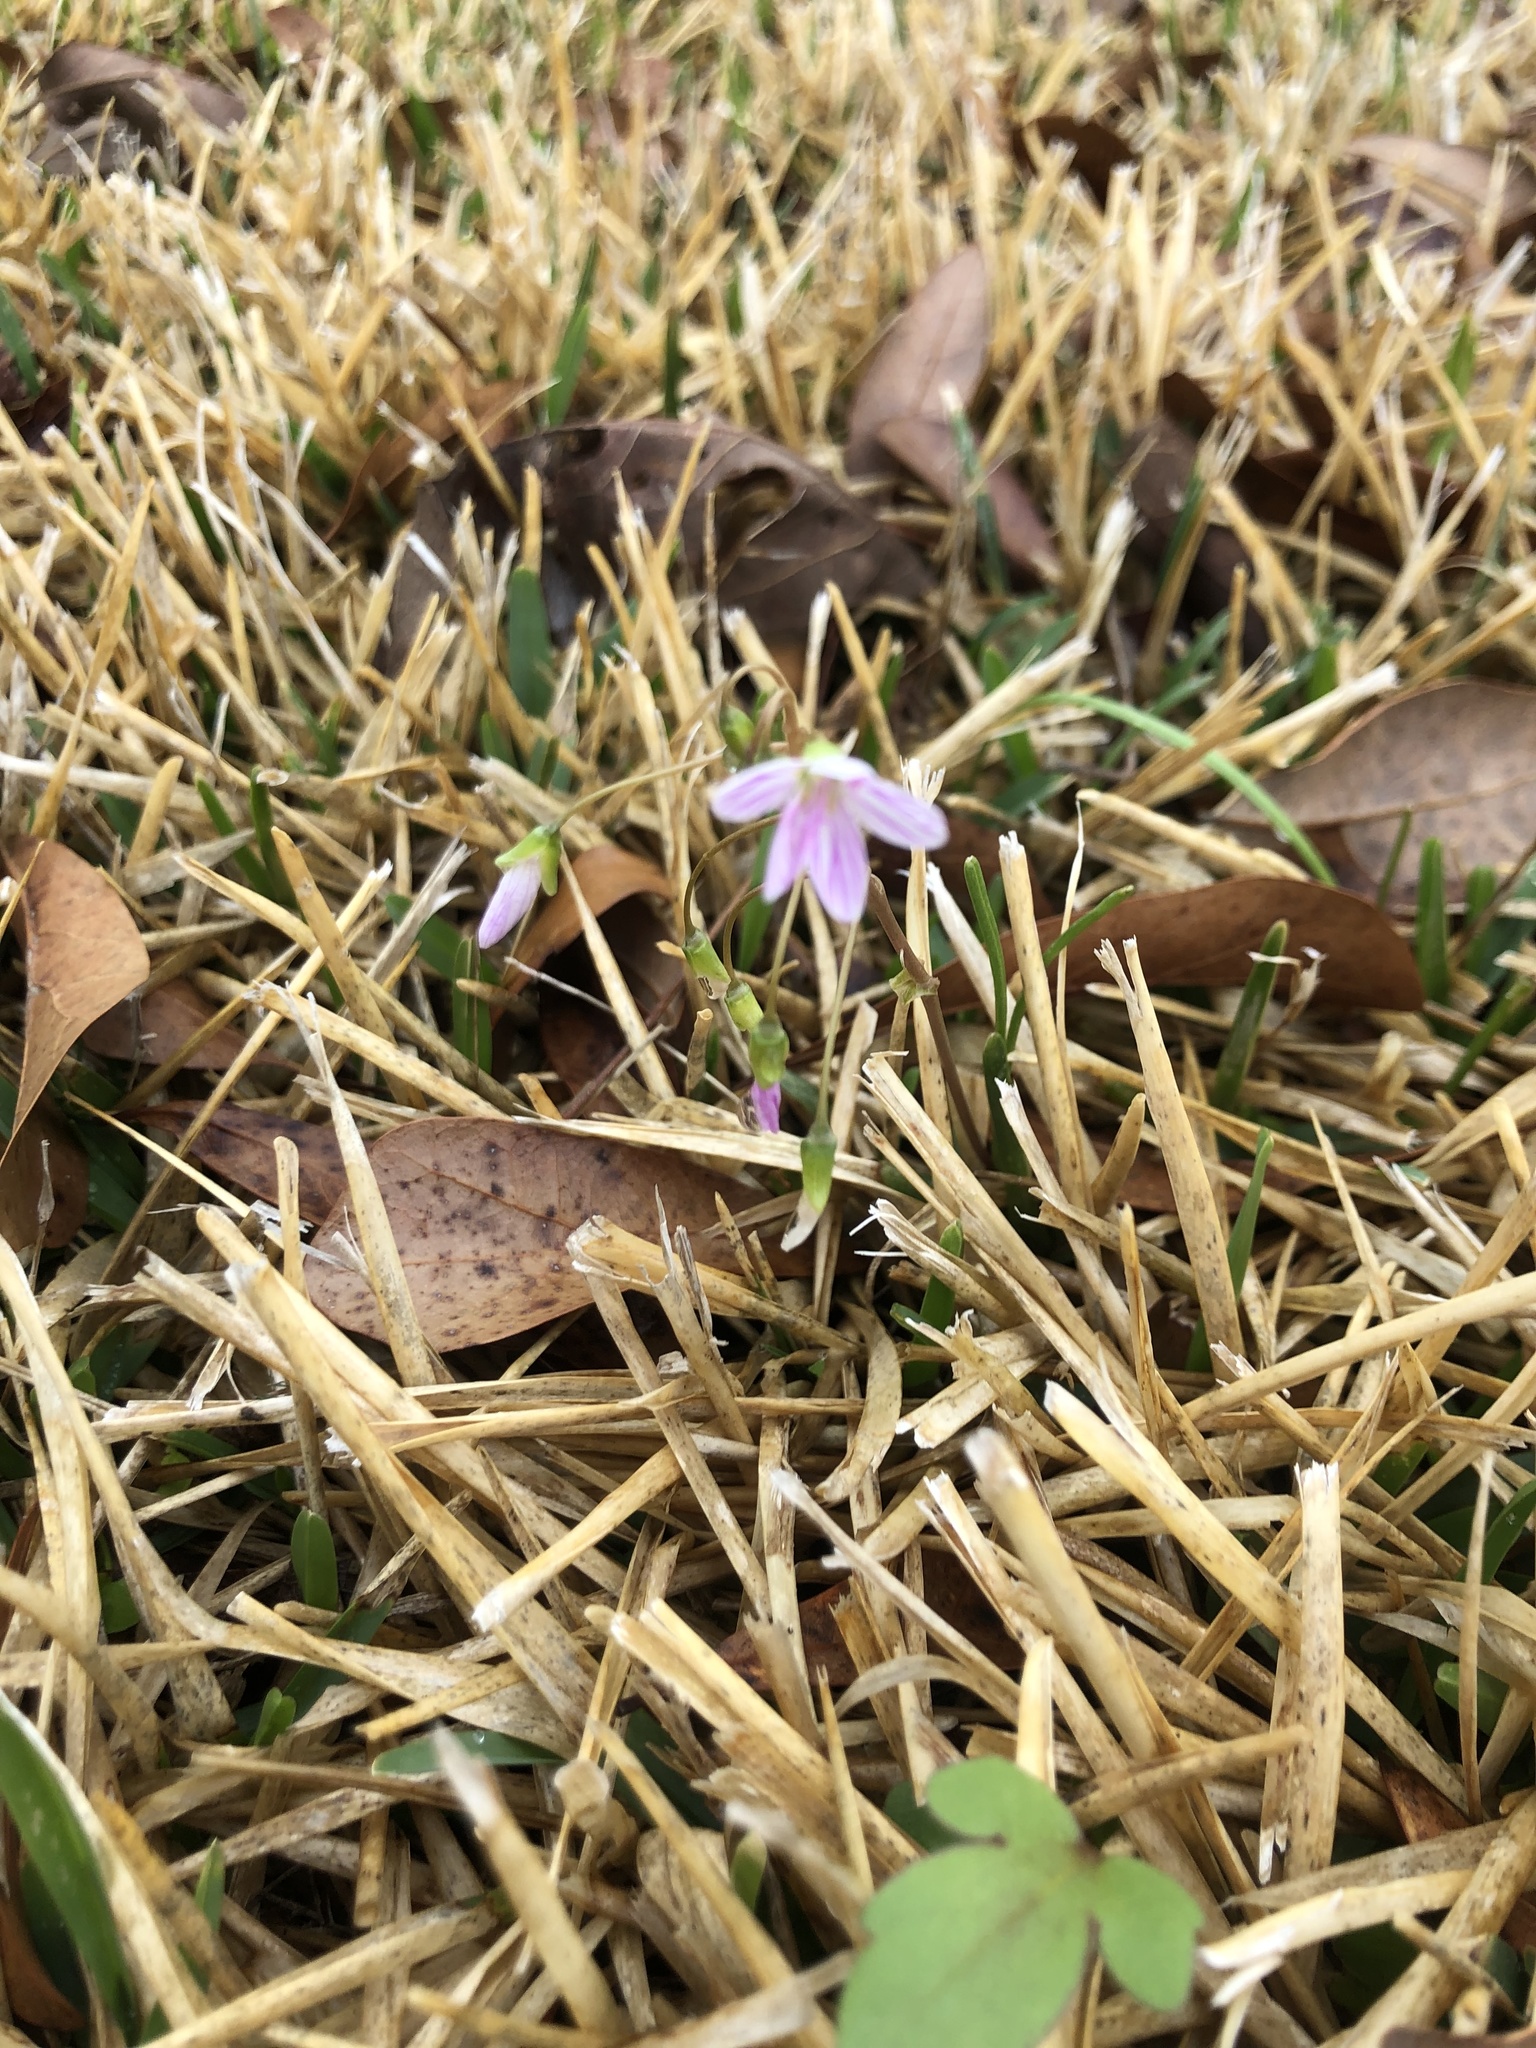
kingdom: Plantae
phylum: Tracheophyta
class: Magnoliopsida
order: Caryophyllales
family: Montiaceae
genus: Claytonia
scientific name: Claytonia virginica
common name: Virginia springbeauty
